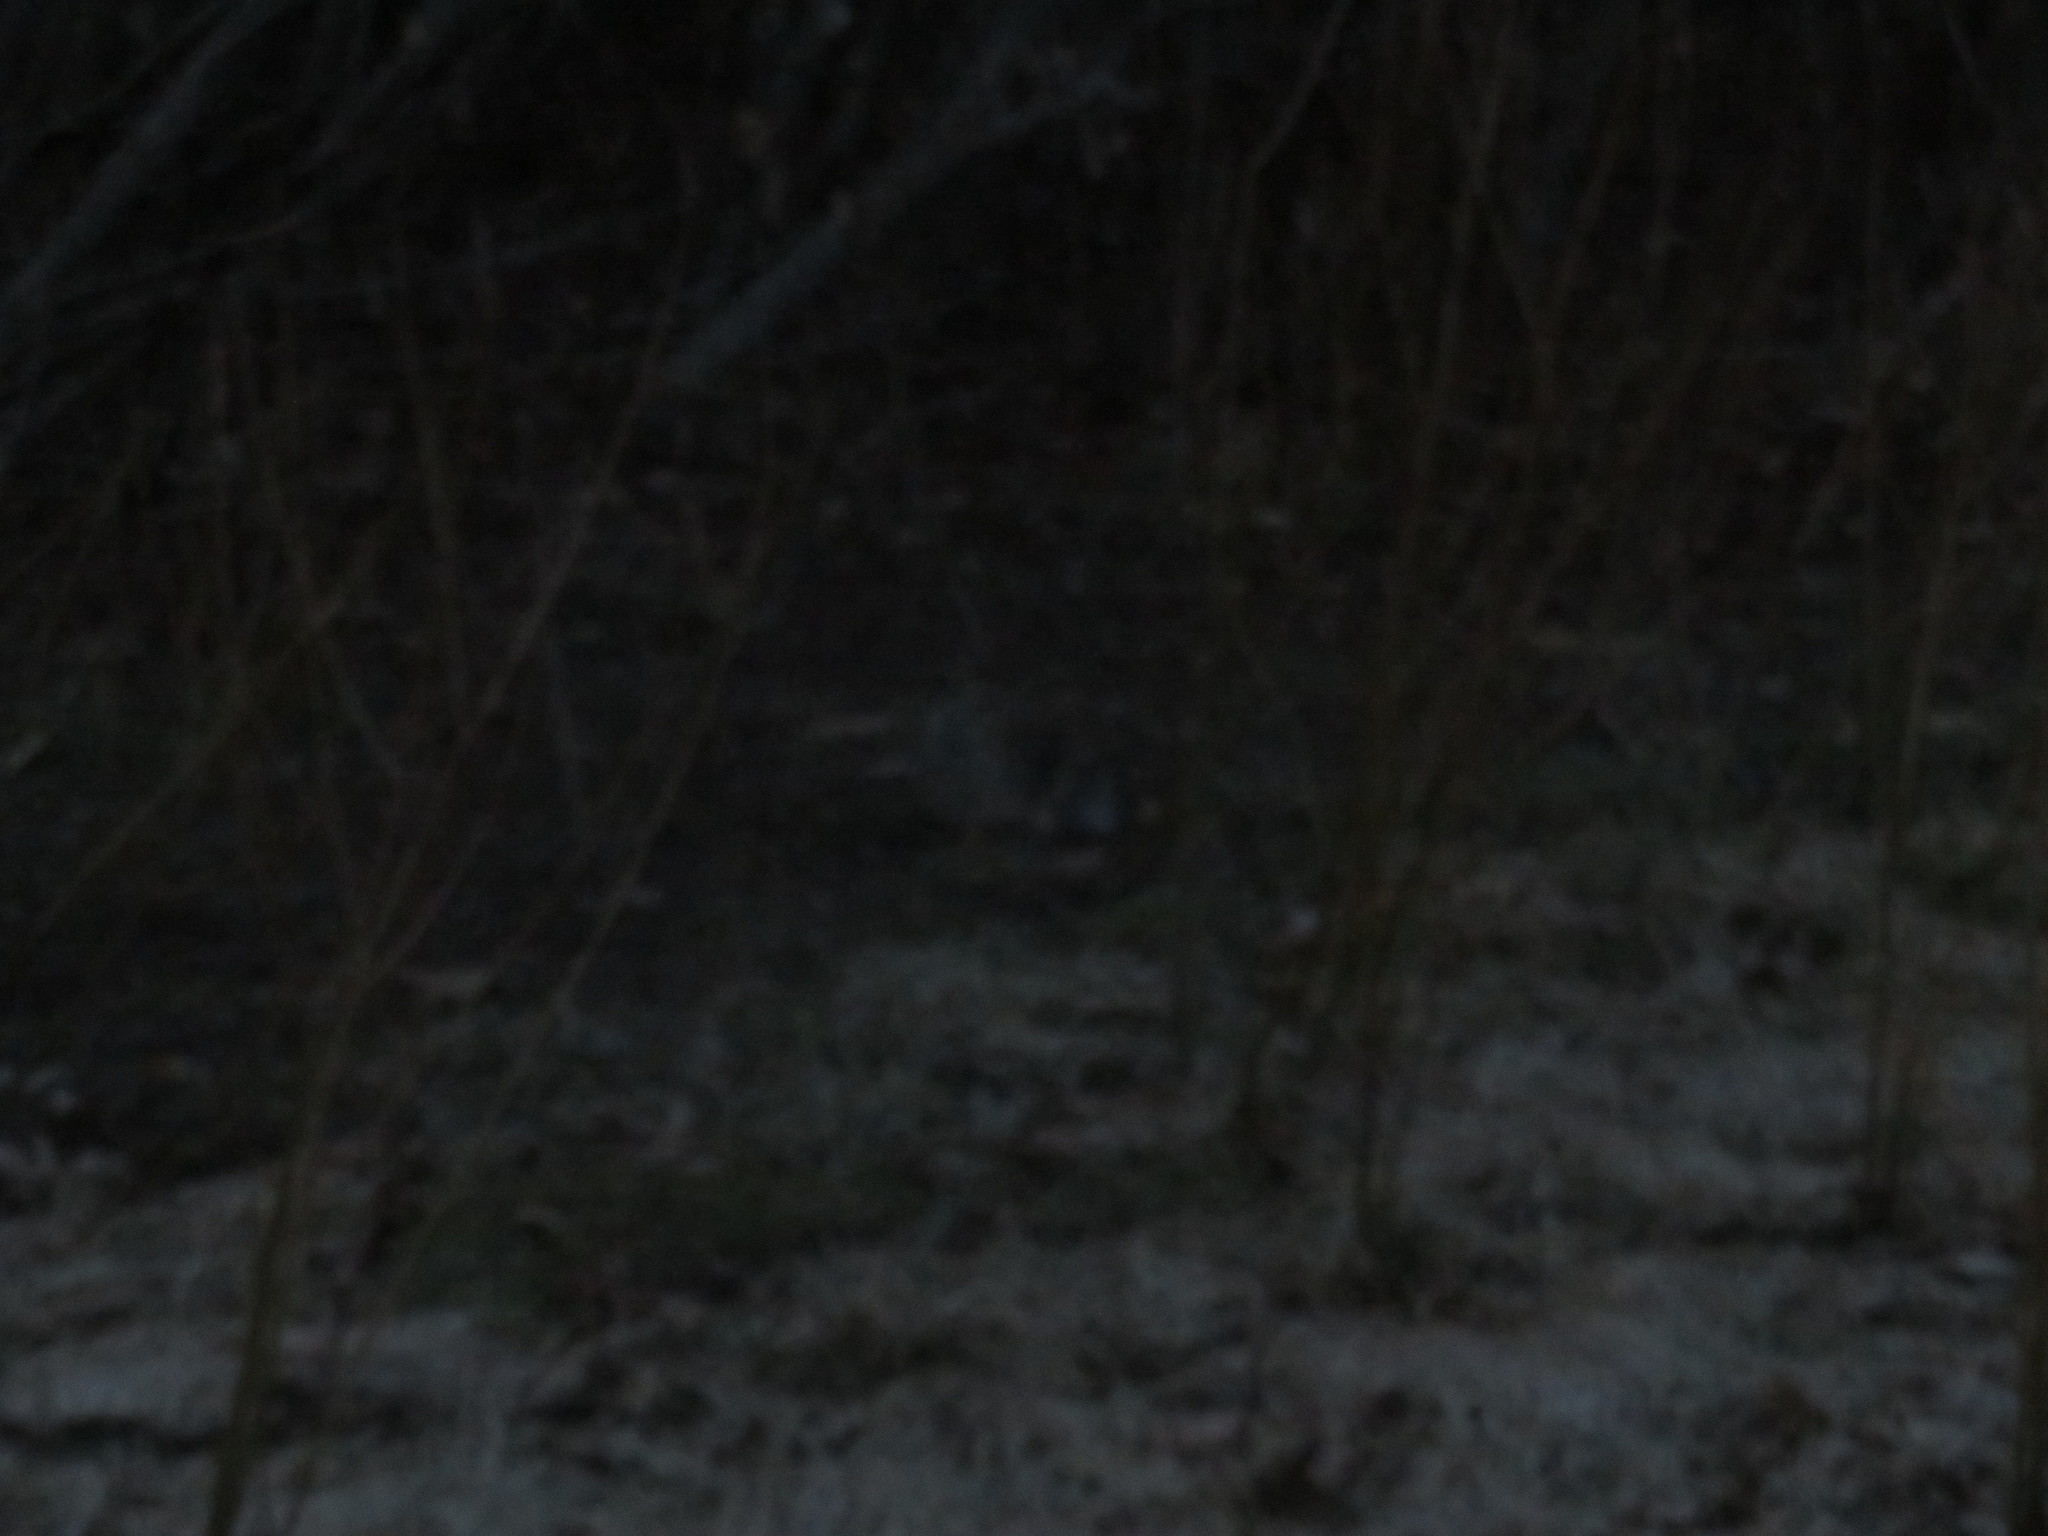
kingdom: Animalia
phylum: Chordata
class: Mammalia
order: Lagomorpha
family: Leporidae
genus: Sylvilagus
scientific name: Sylvilagus floridanus
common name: Eastern cottontail
